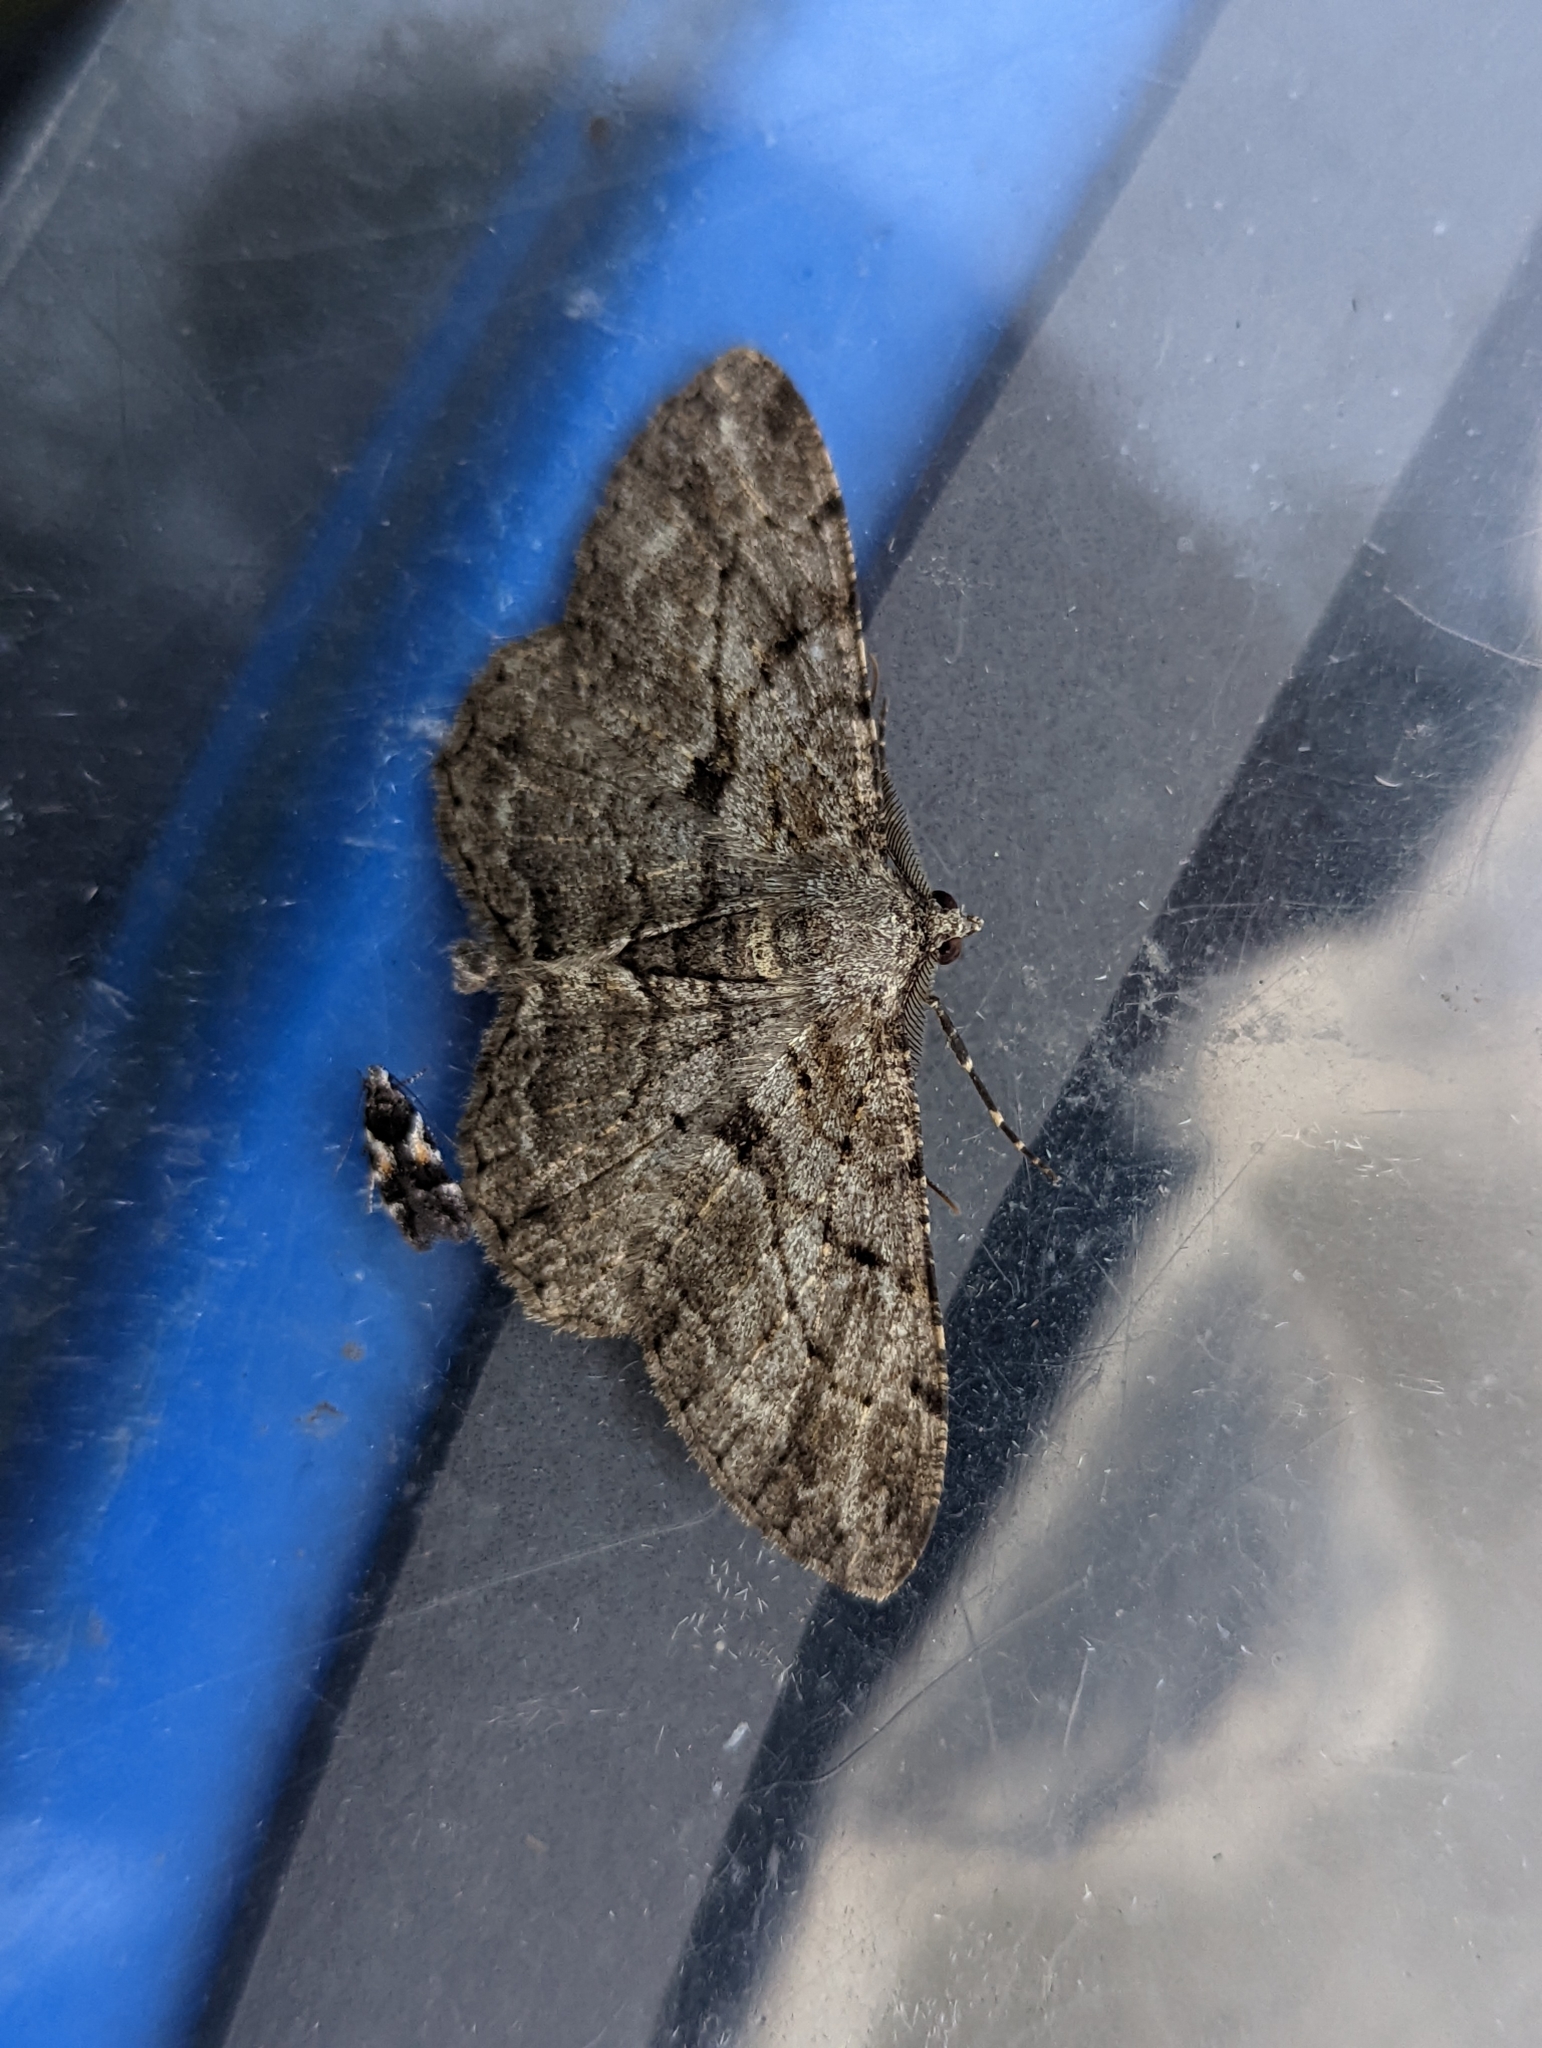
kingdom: Animalia
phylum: Arthropoda
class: Insecta
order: Lepidoptera
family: Geometridae
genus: Peribatodes
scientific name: Peribatodes rhomboidaria
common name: Willow beauty
